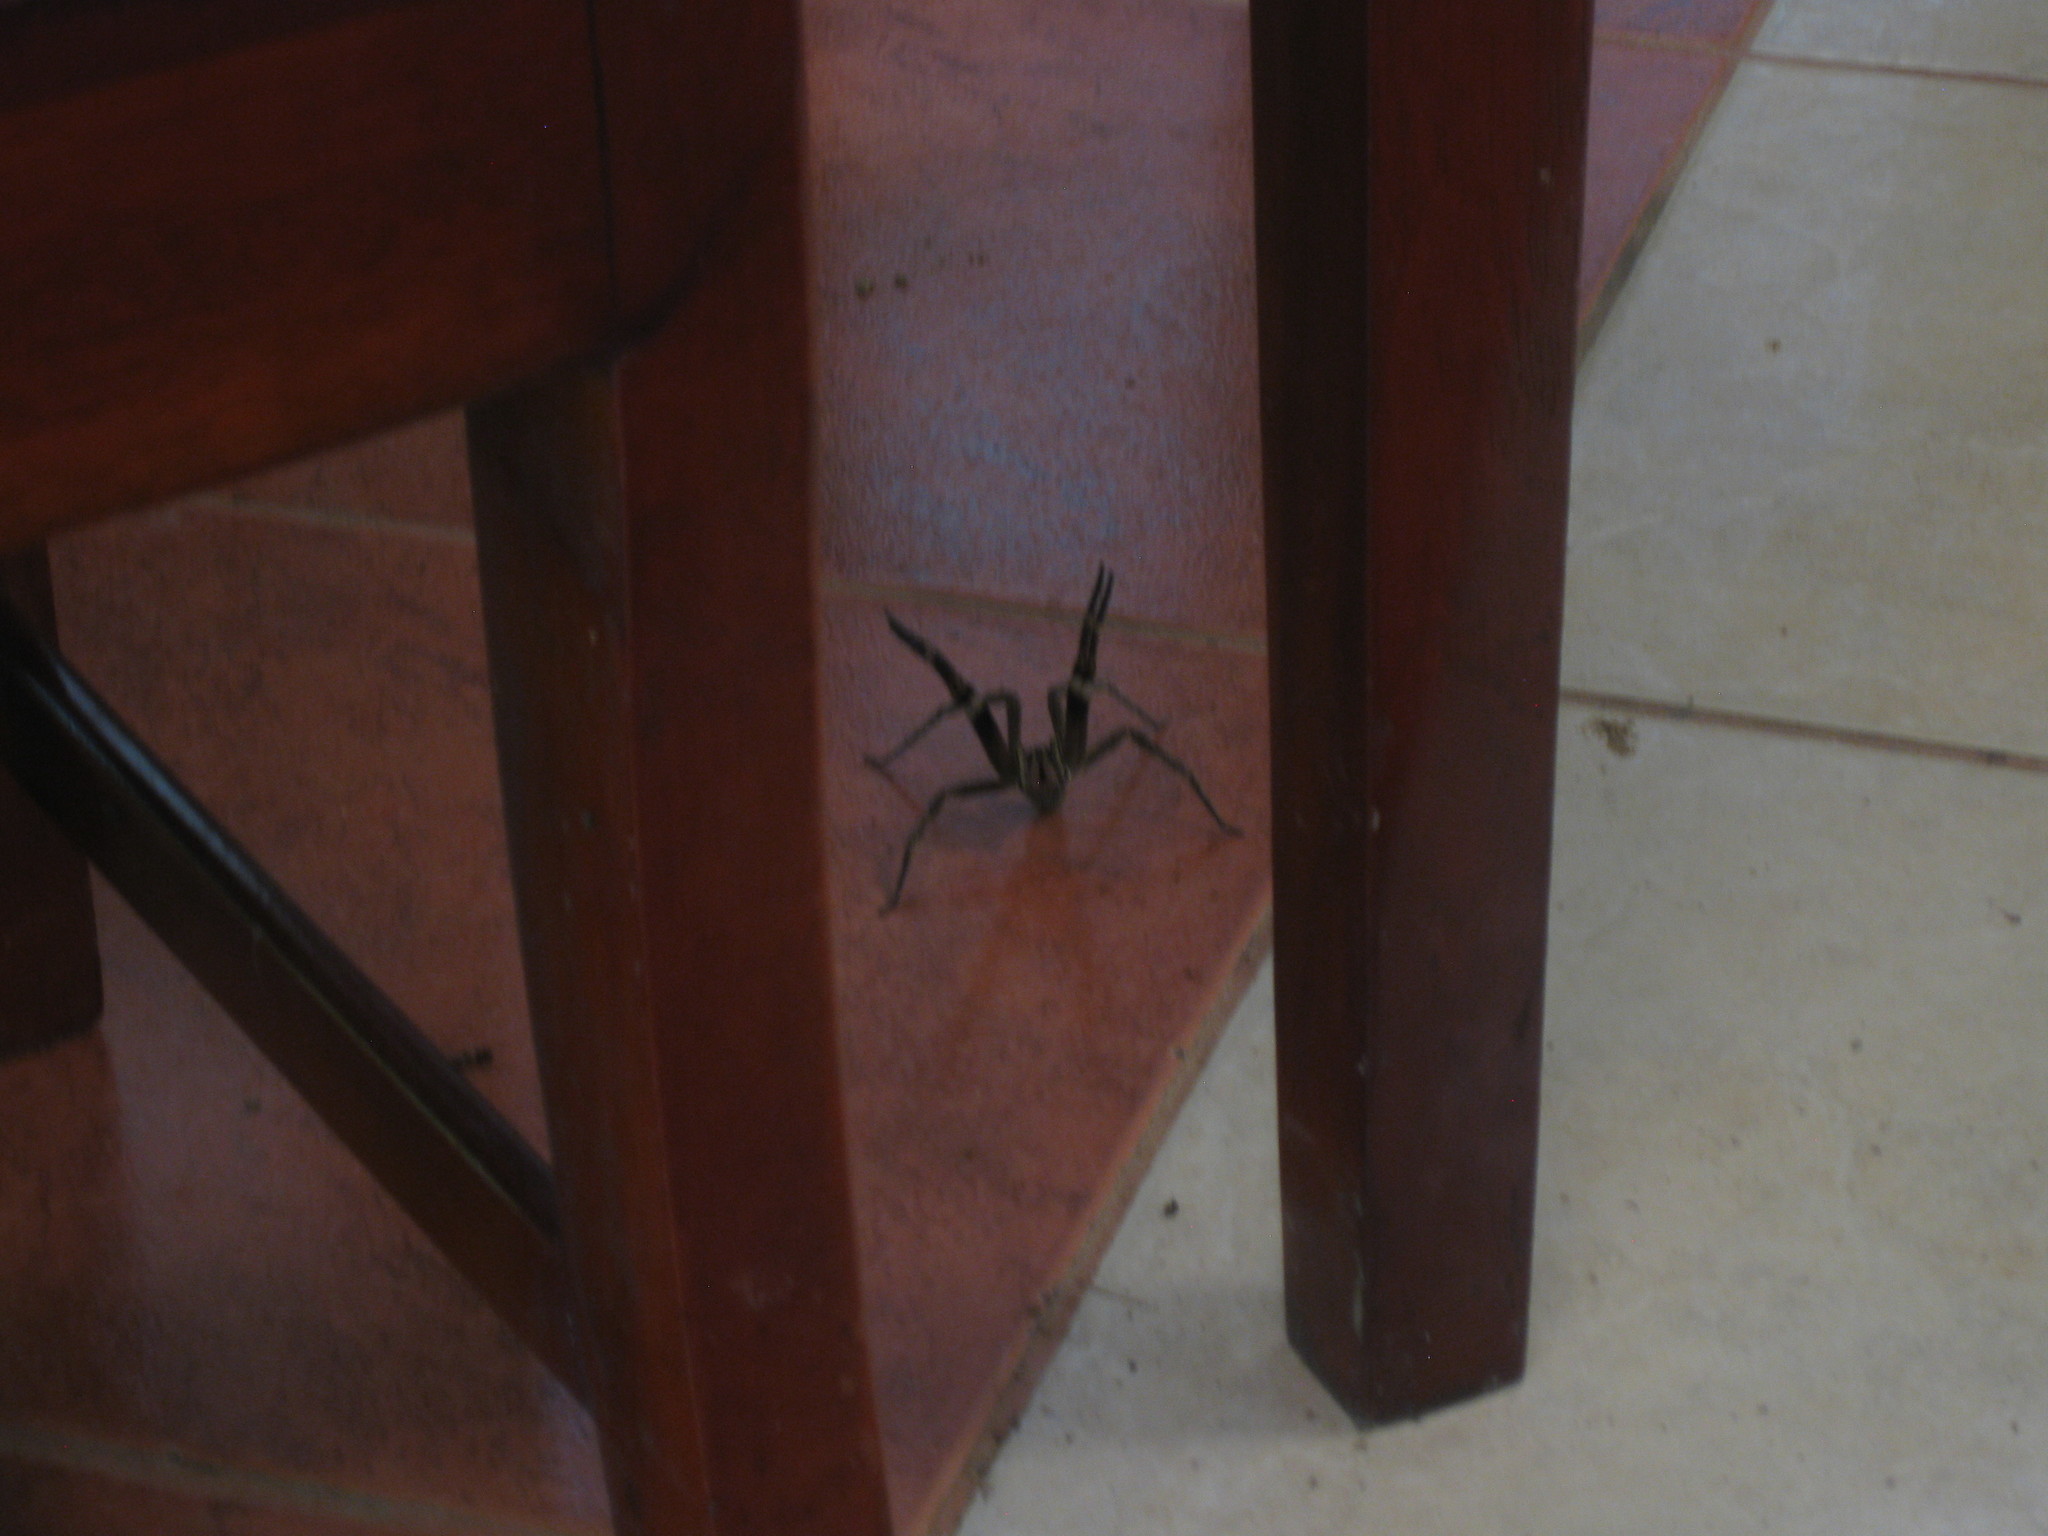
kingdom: Animalia
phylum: Arthropoda
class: Arachnida
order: Araneae
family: Ctenidae
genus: Phoneutria
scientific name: Phoneutria fera
